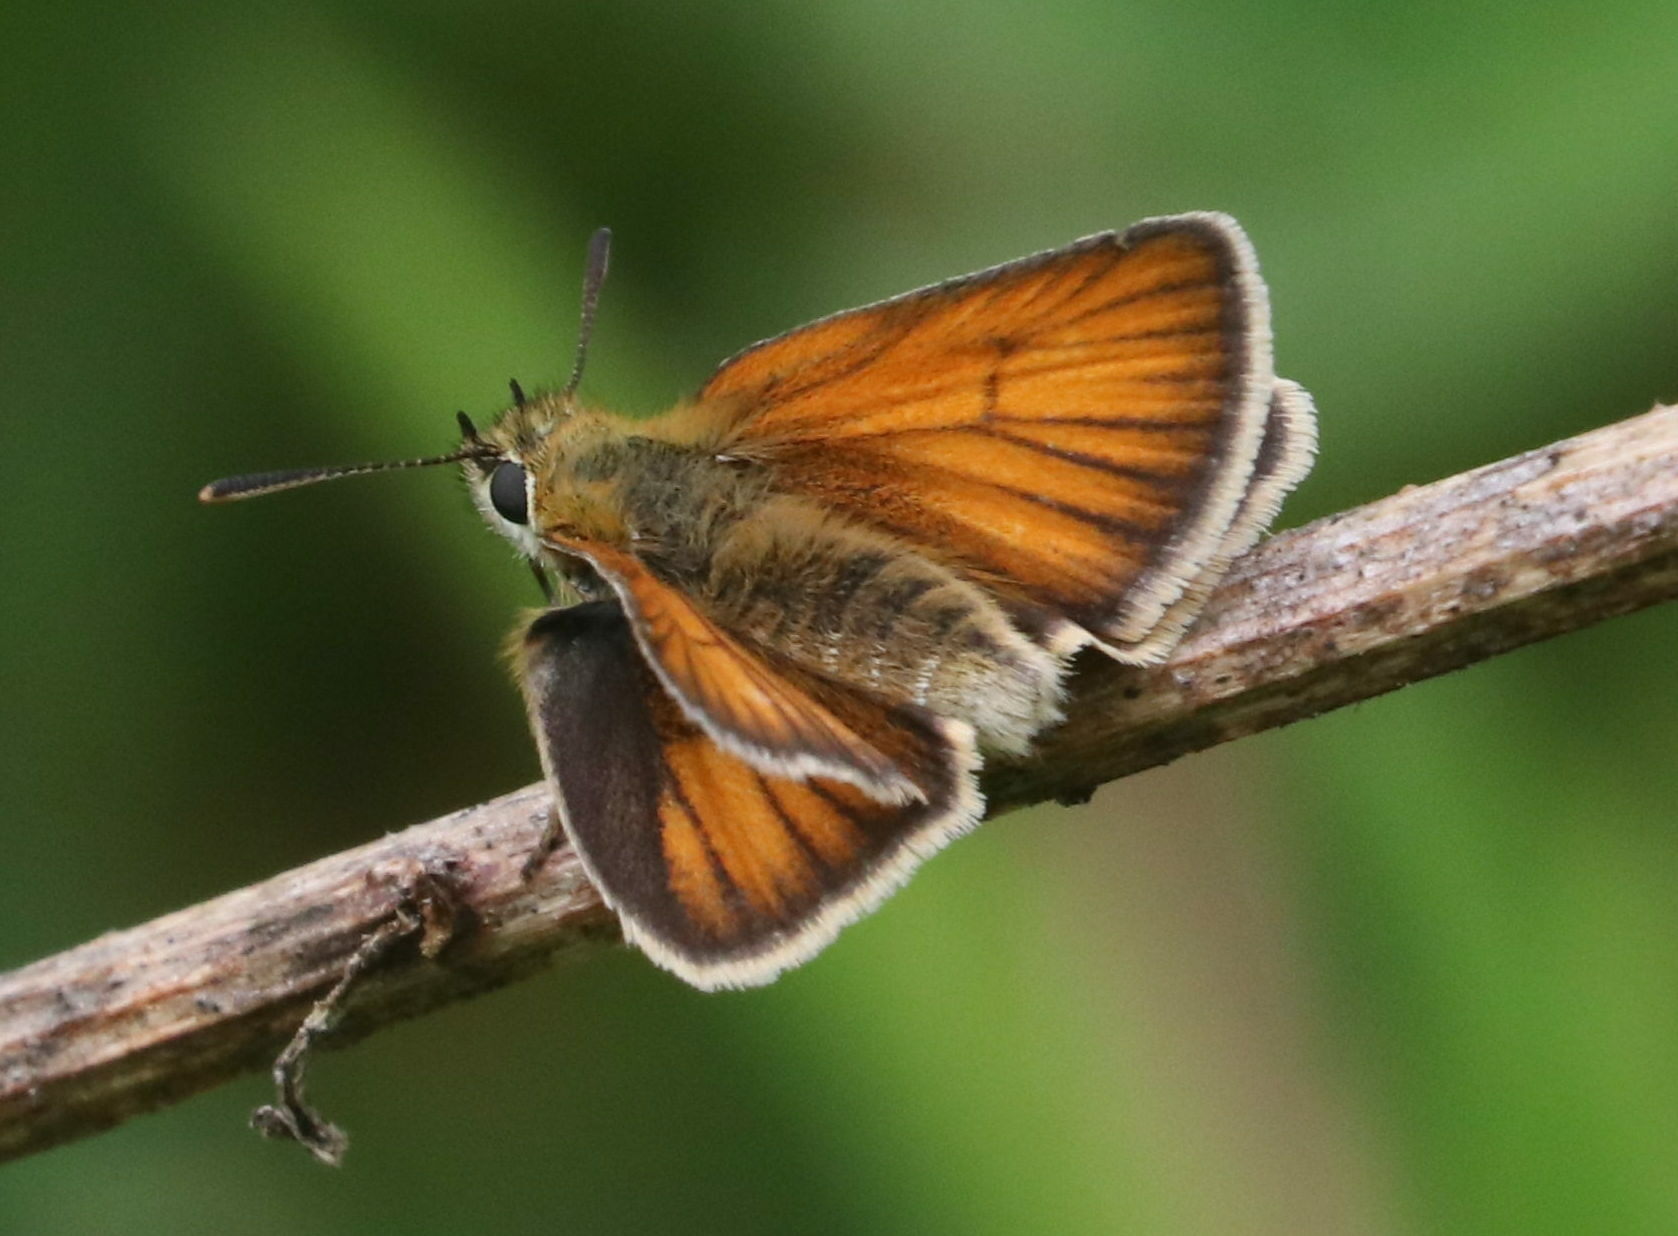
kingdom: Animalia
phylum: Arthropoda
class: Insecta
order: Lepidoptera
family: Hesperiidae
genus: Thymelicus
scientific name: Thymelicus lineola
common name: Essex skipper
